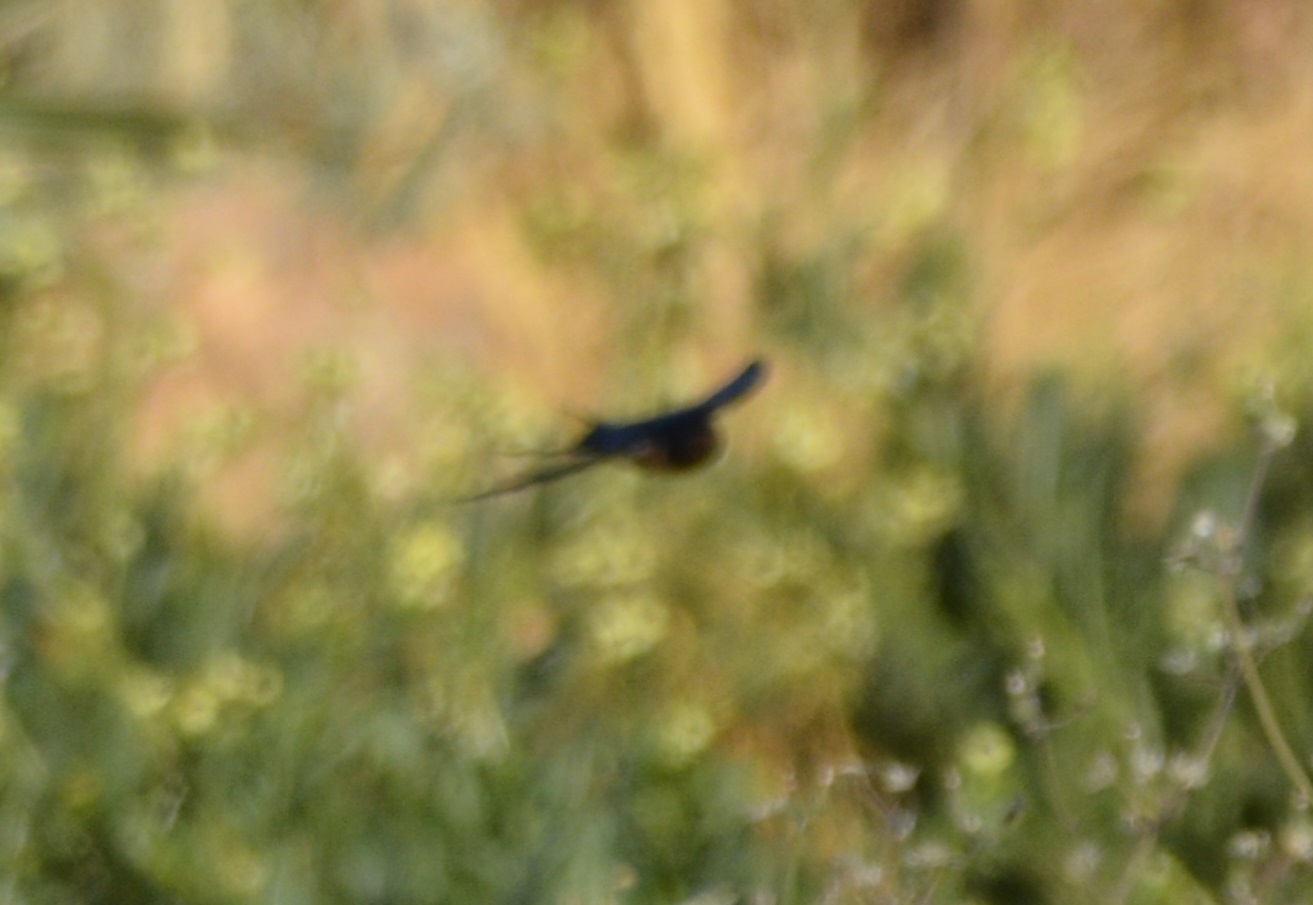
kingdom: Animalia
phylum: Chordata
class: Aves
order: Passeriformes
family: Hirundinidae
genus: Hirundo
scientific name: Hirundo rustica
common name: Barn swallow
